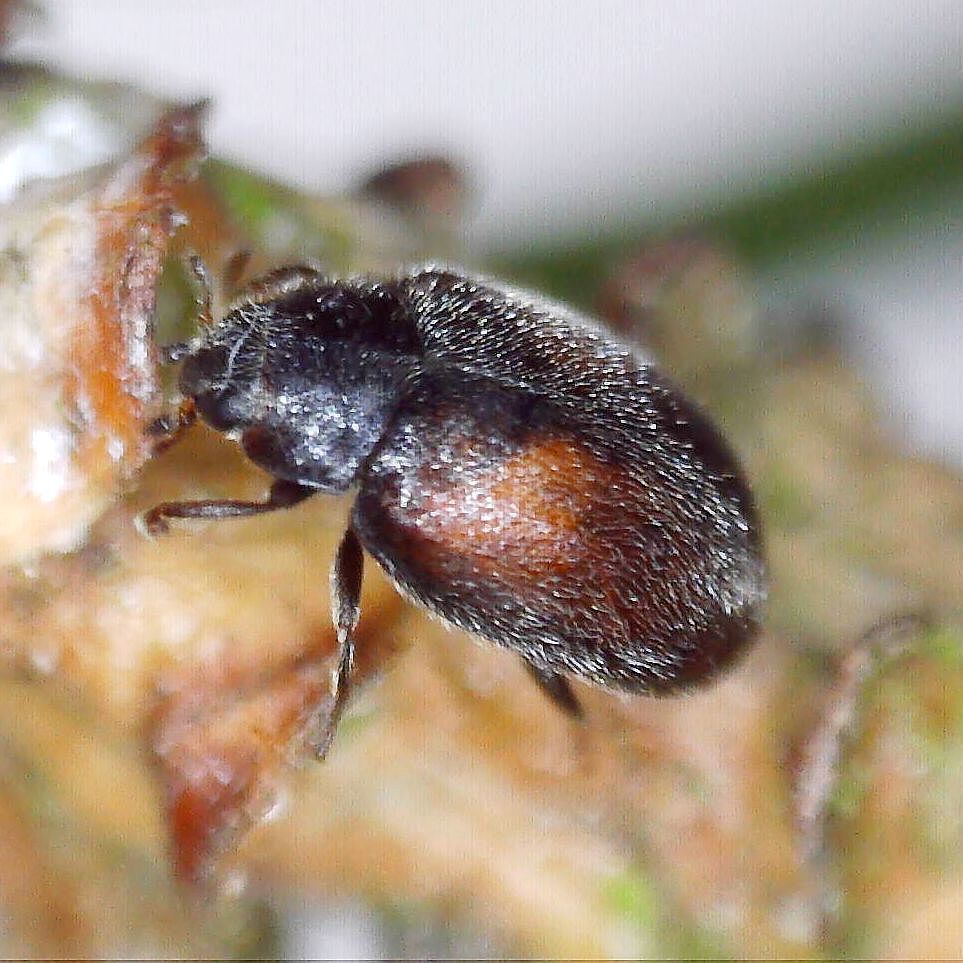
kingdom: Animalia
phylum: Arthropoda
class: Insecta
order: Coleoptera
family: Coccinellidae
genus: Scymnus
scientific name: Scymnus suturalis
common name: Ladybird beetle
